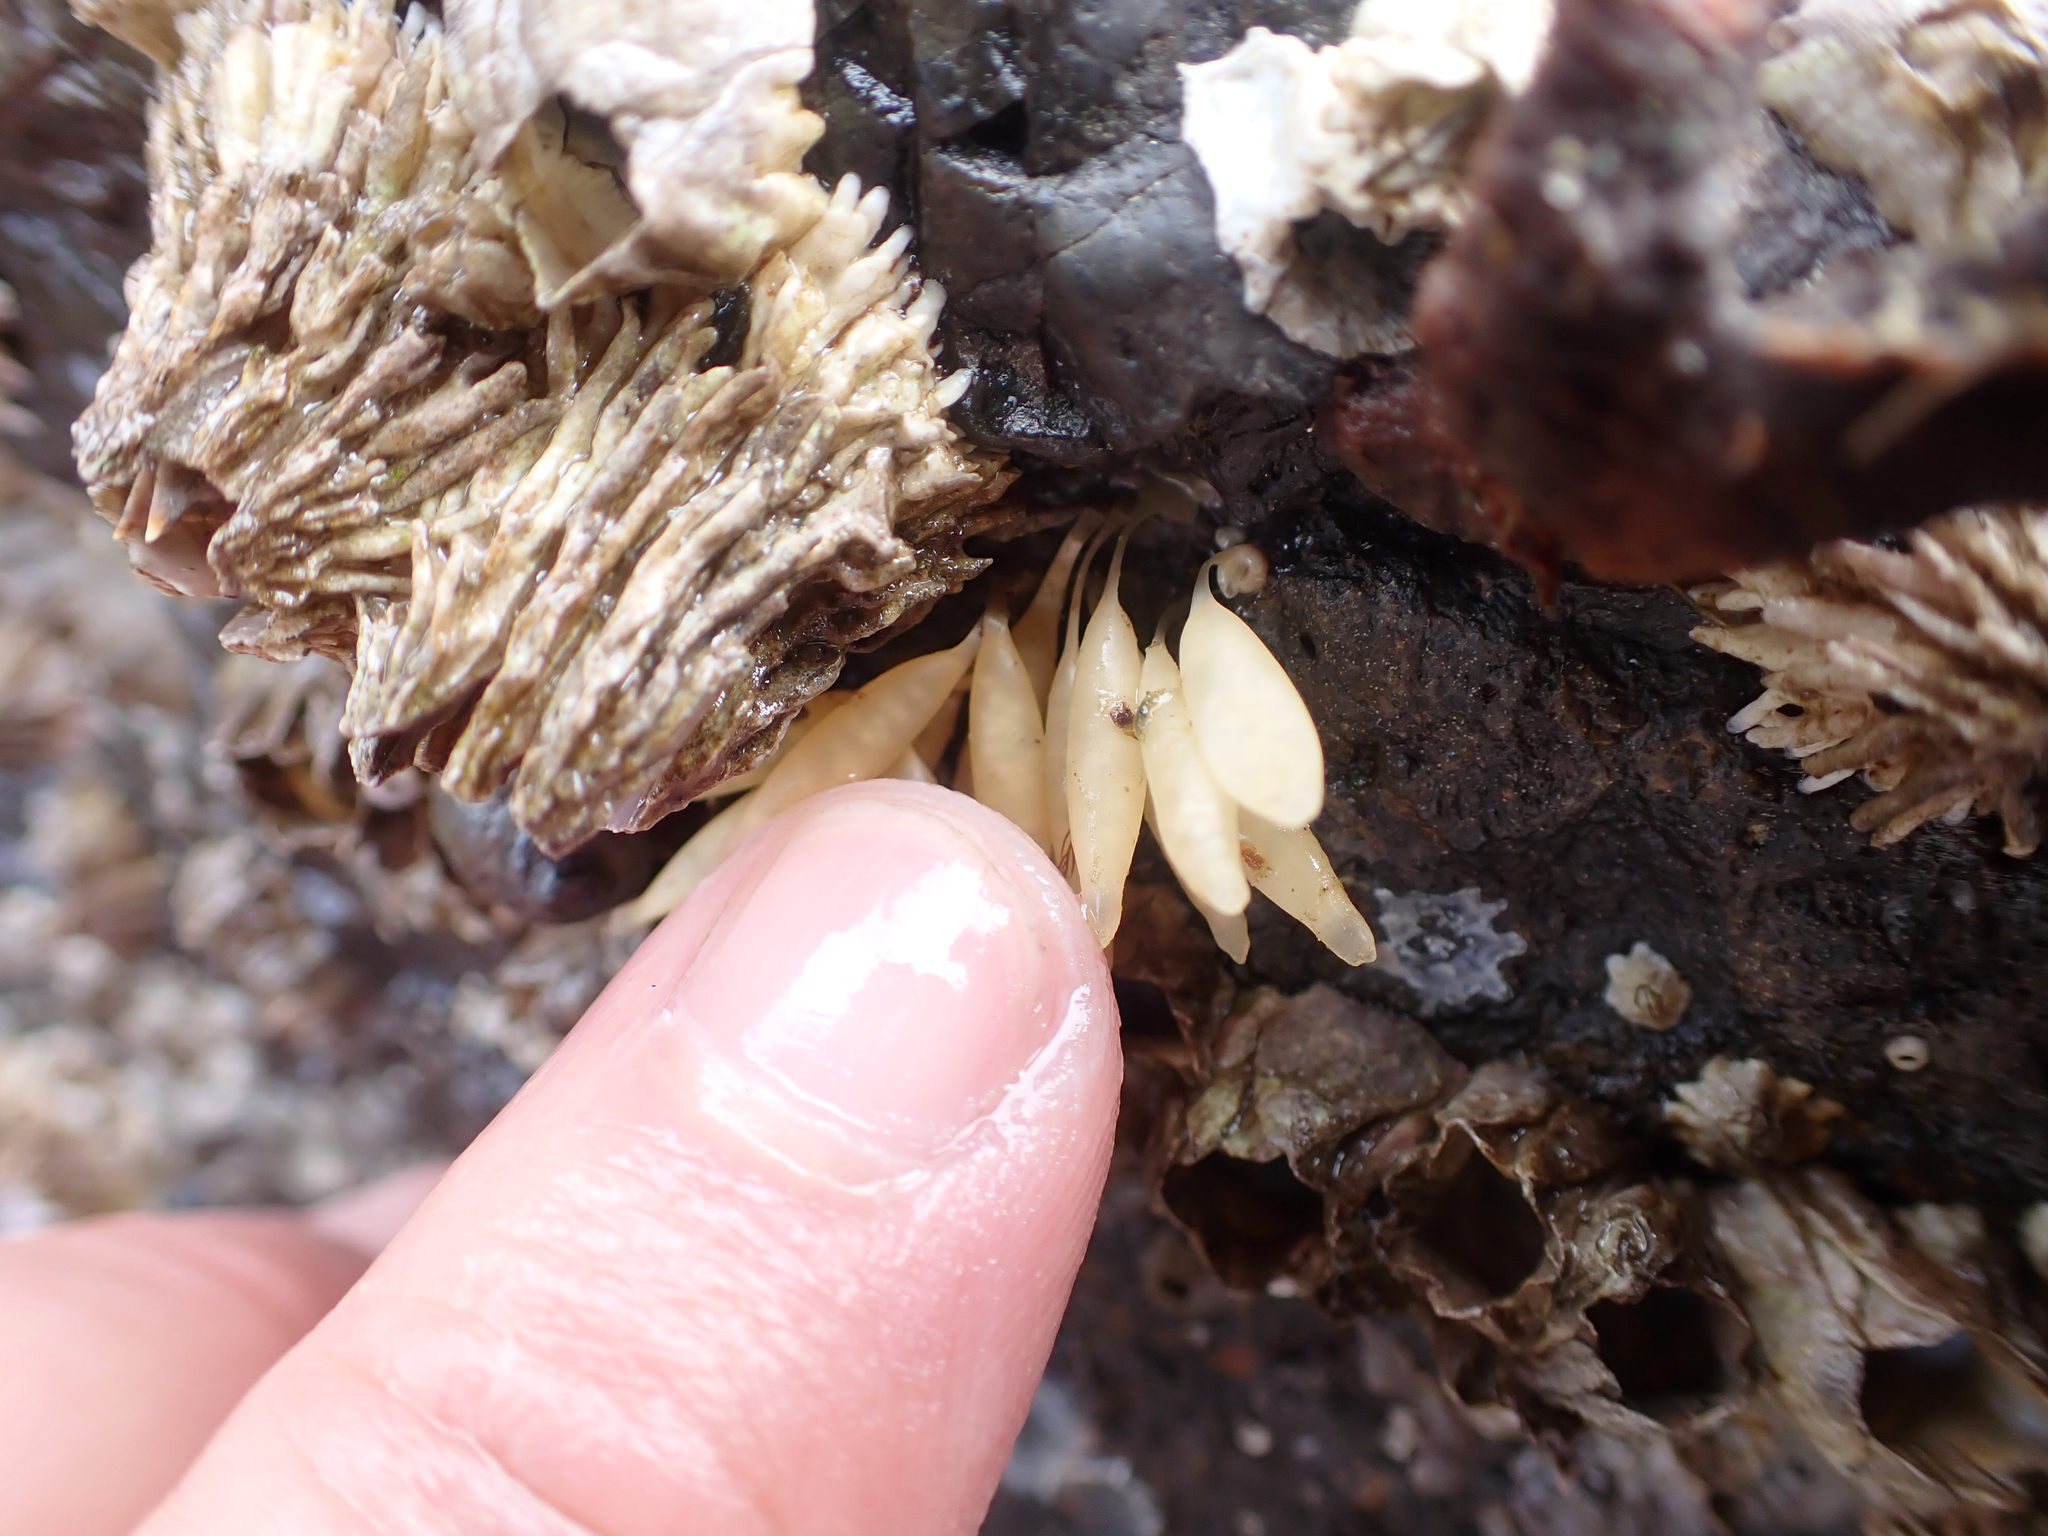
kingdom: Animalia
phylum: Mollusca
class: Gastropoda
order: Neogastropoda
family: Muricidae
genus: Nucella
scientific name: Nucella lamellosa
